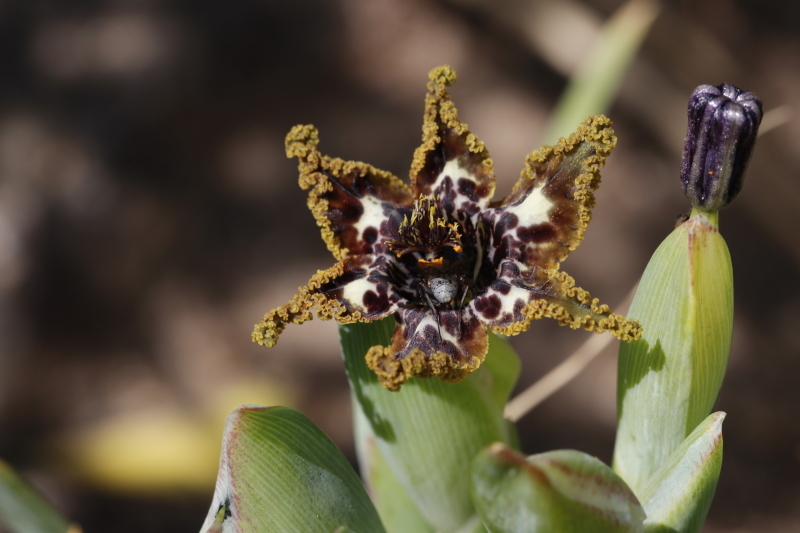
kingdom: Plantae
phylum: Tracheophyta
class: Liliopsida
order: Asparagales
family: Iridaceae
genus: Ferraria
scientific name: Ferraria crispa
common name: Black-flag
